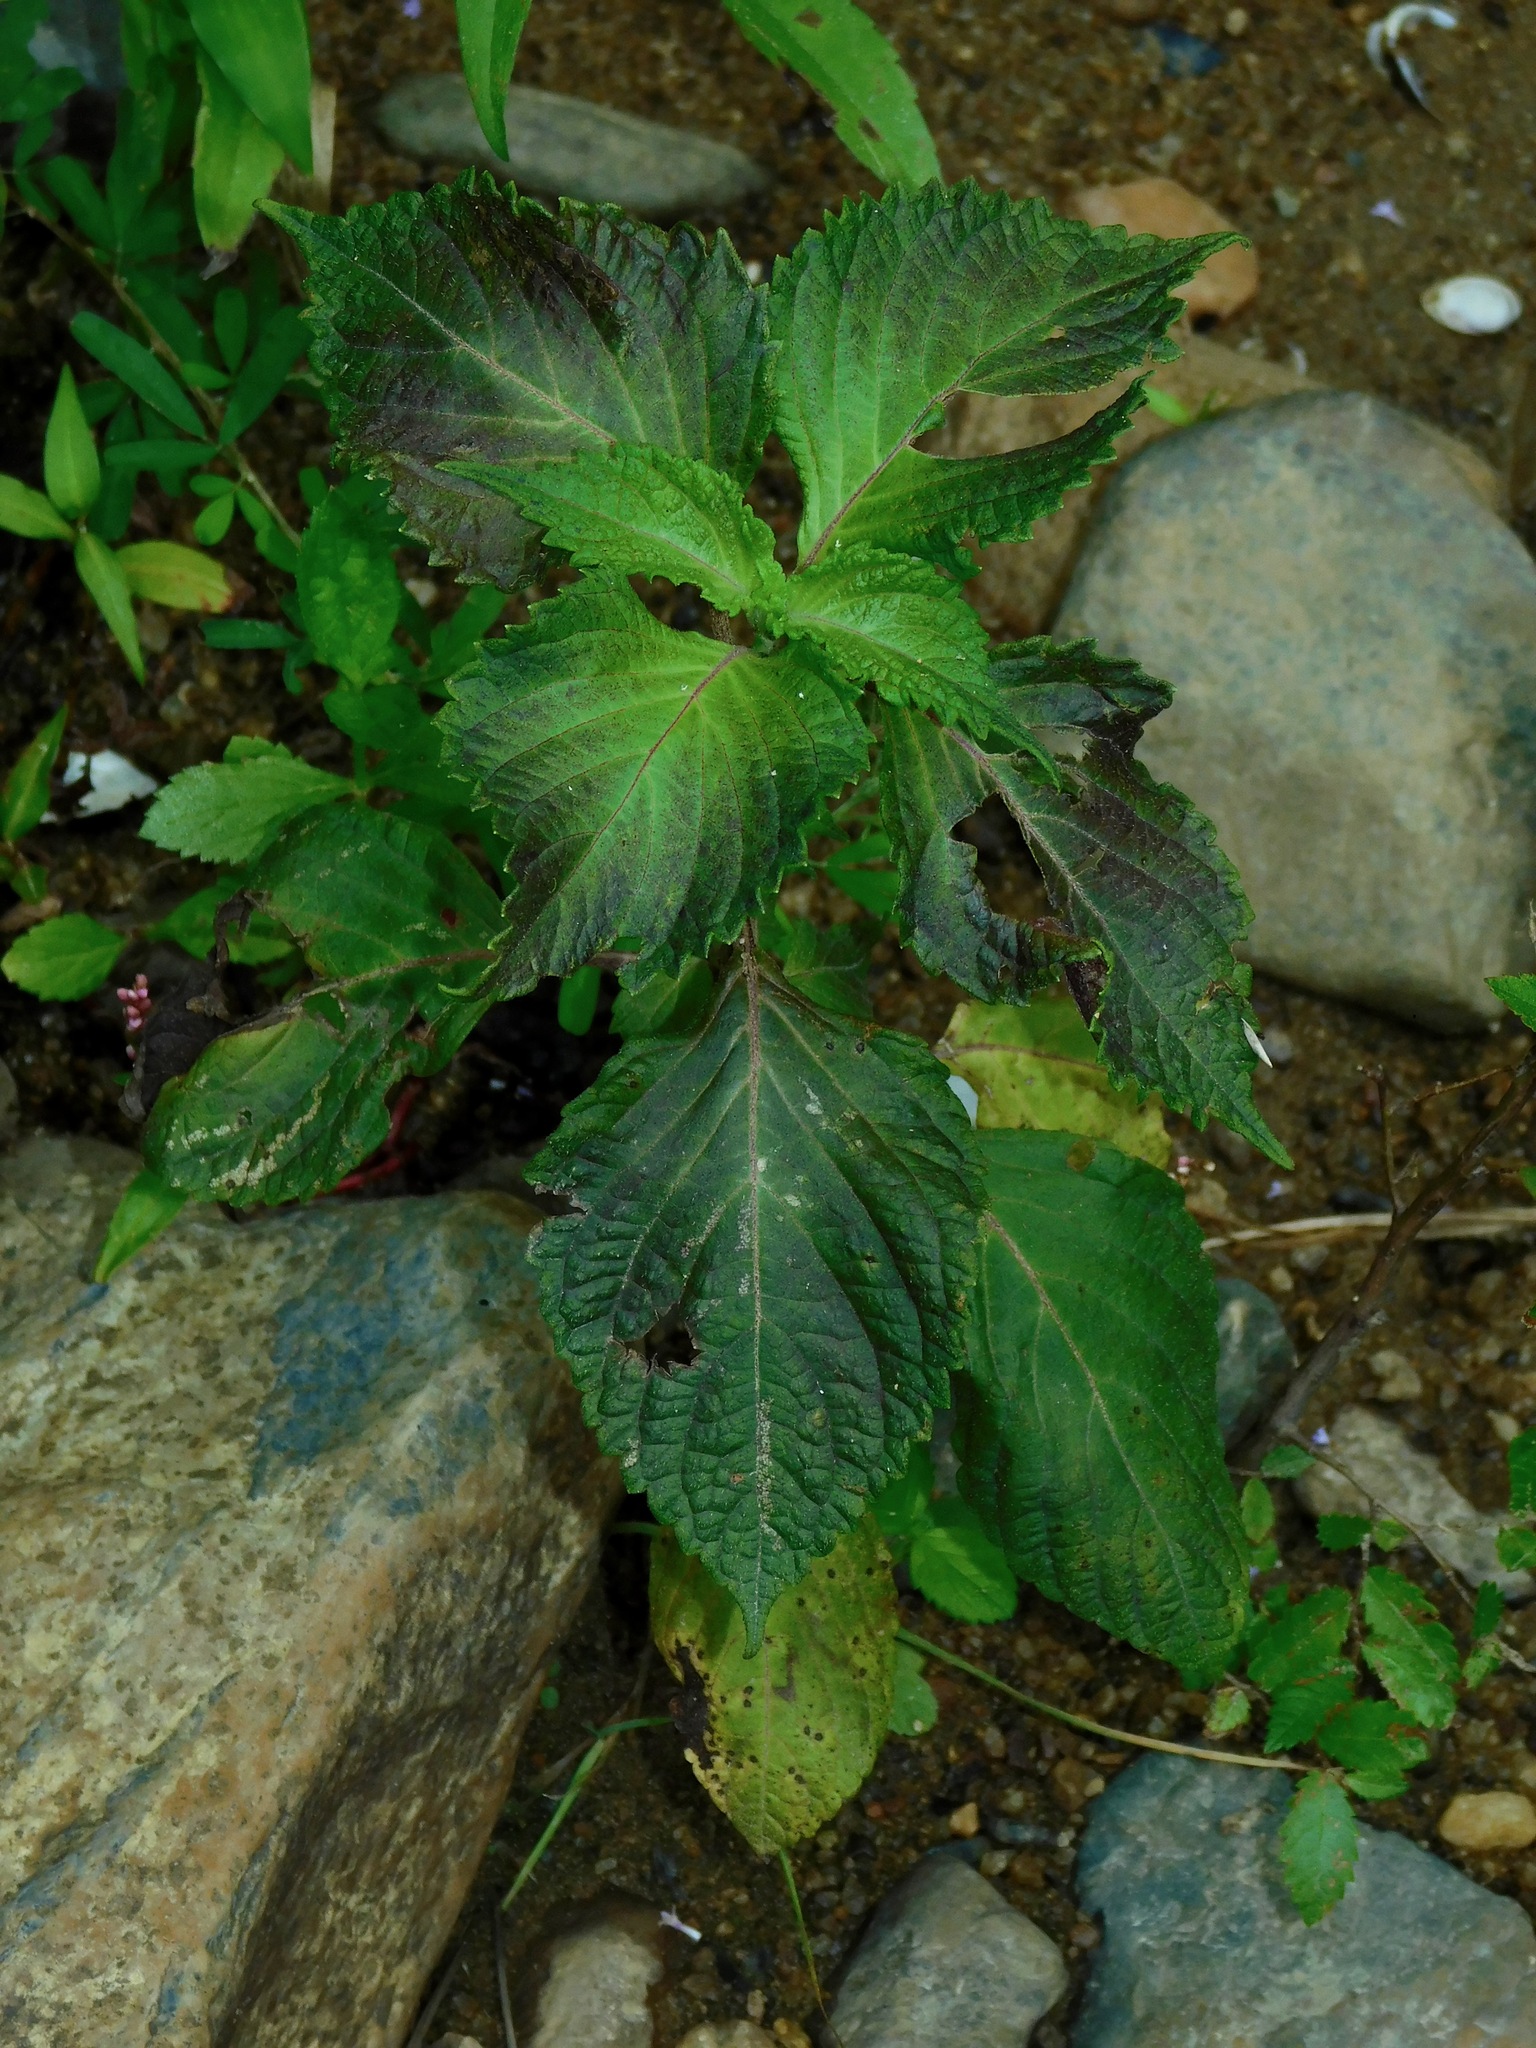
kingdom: Plantae
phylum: Tracheophyta
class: Magnoliopsida
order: Lamiales
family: Lamiaceae
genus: Perilla
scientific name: Perilla frutescens
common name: Perilla
